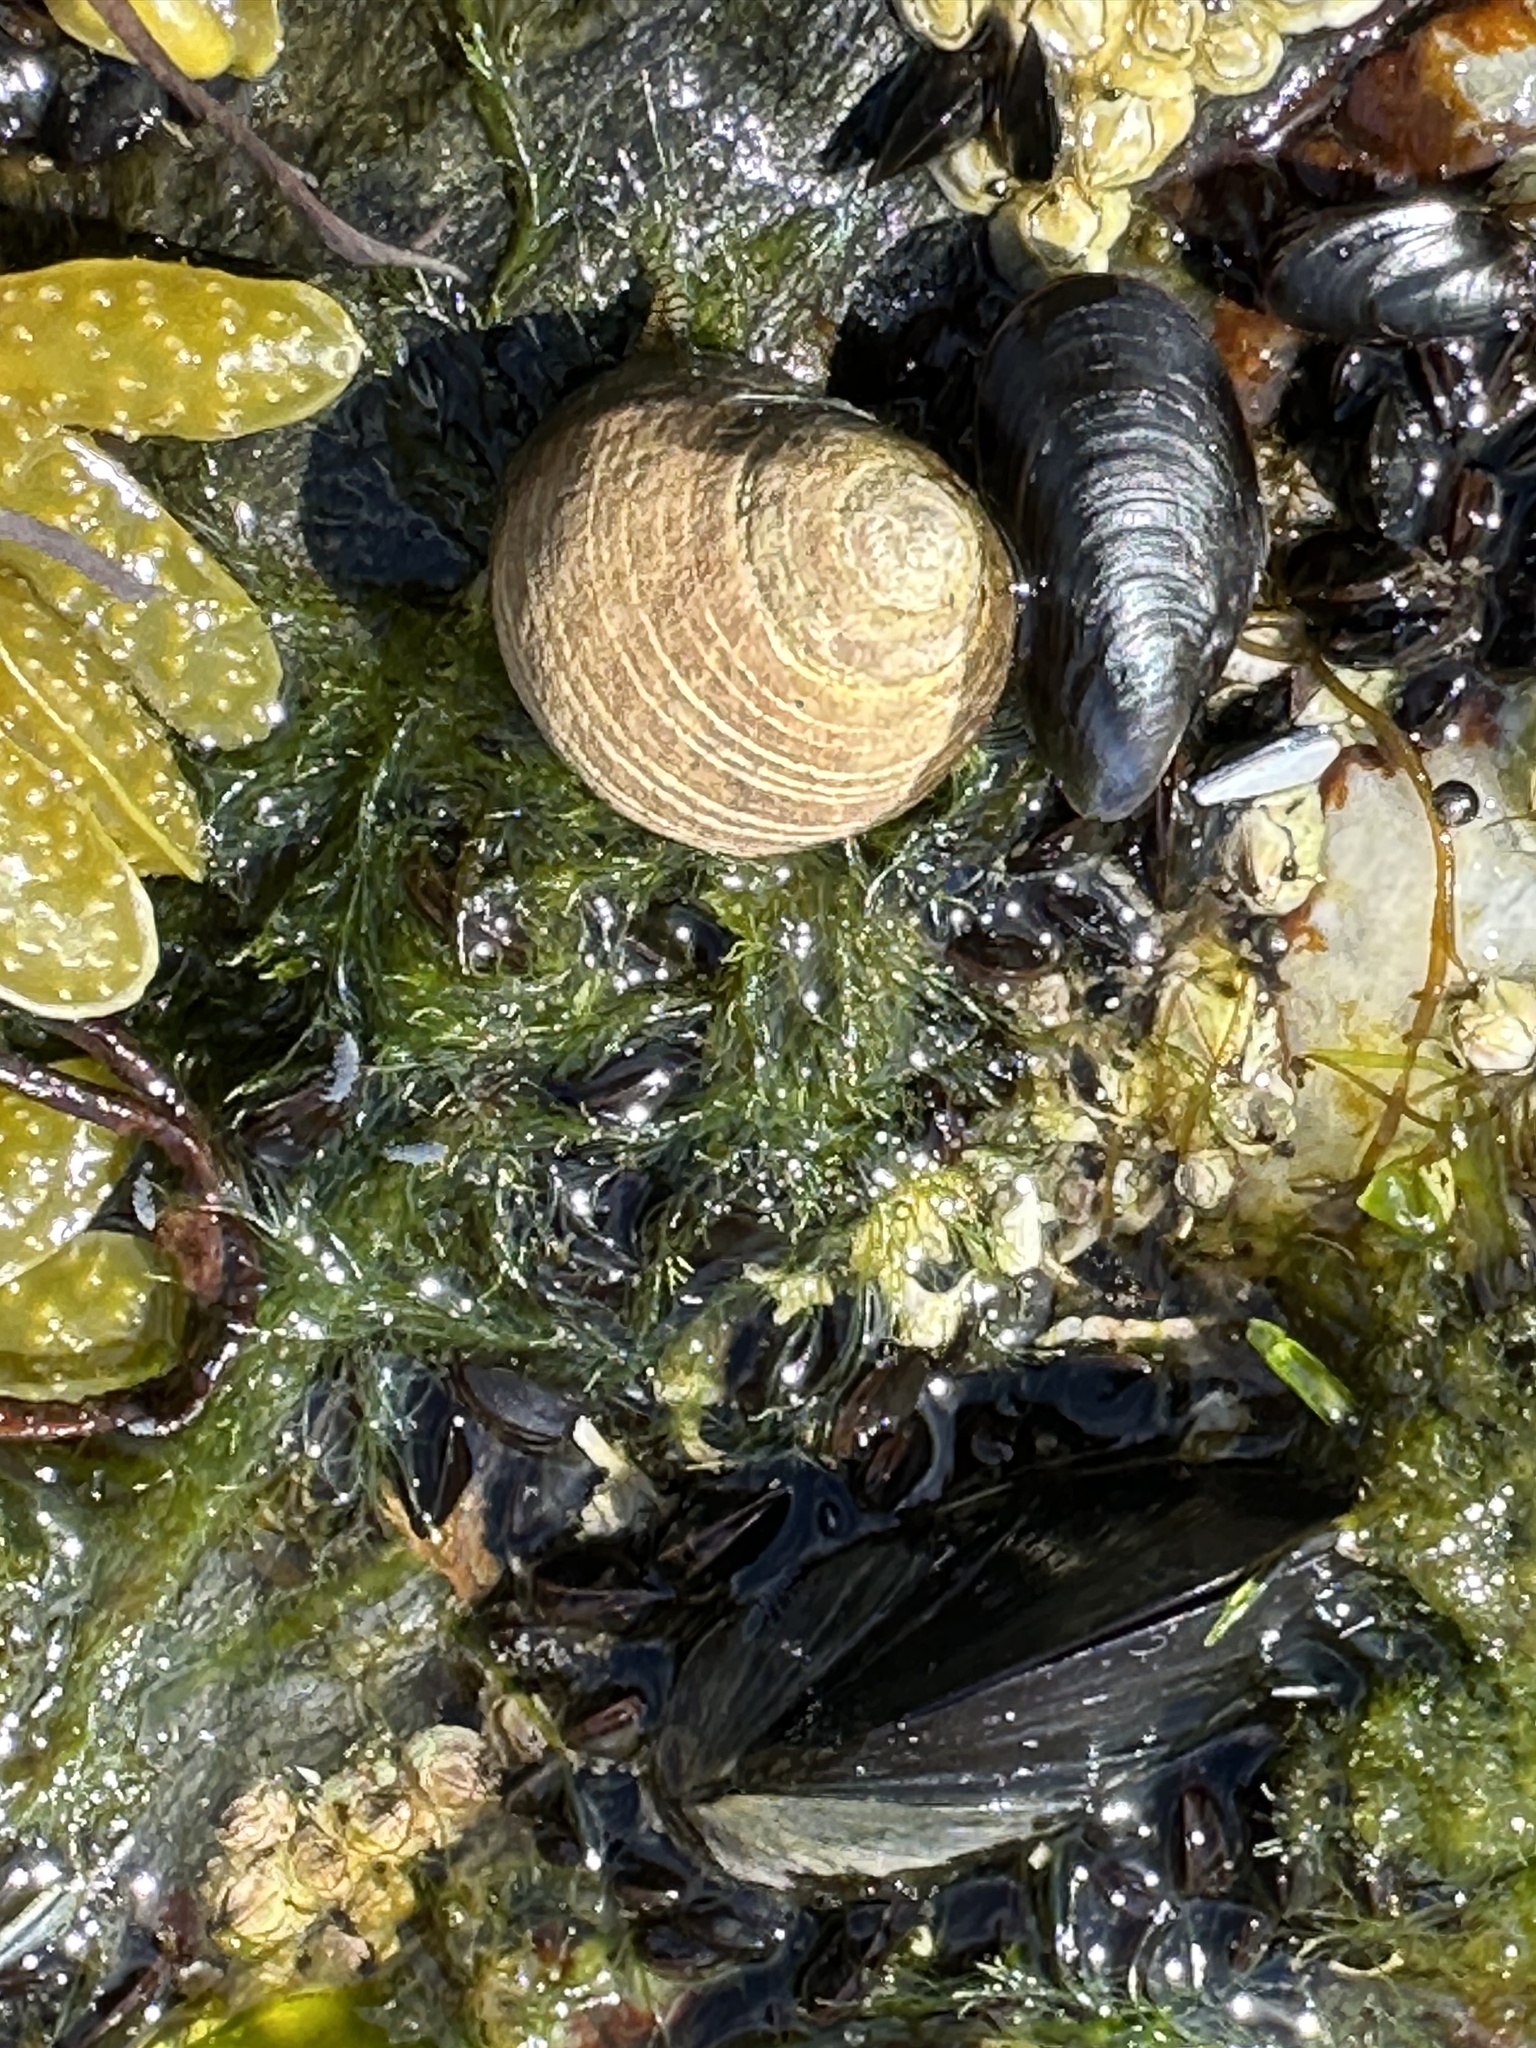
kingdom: Animalia
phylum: Mollusca
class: Gastropoda
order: Littorinimorpha
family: Littorinidae
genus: Littorina
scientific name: Littorina littorea
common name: Common periwinkle
